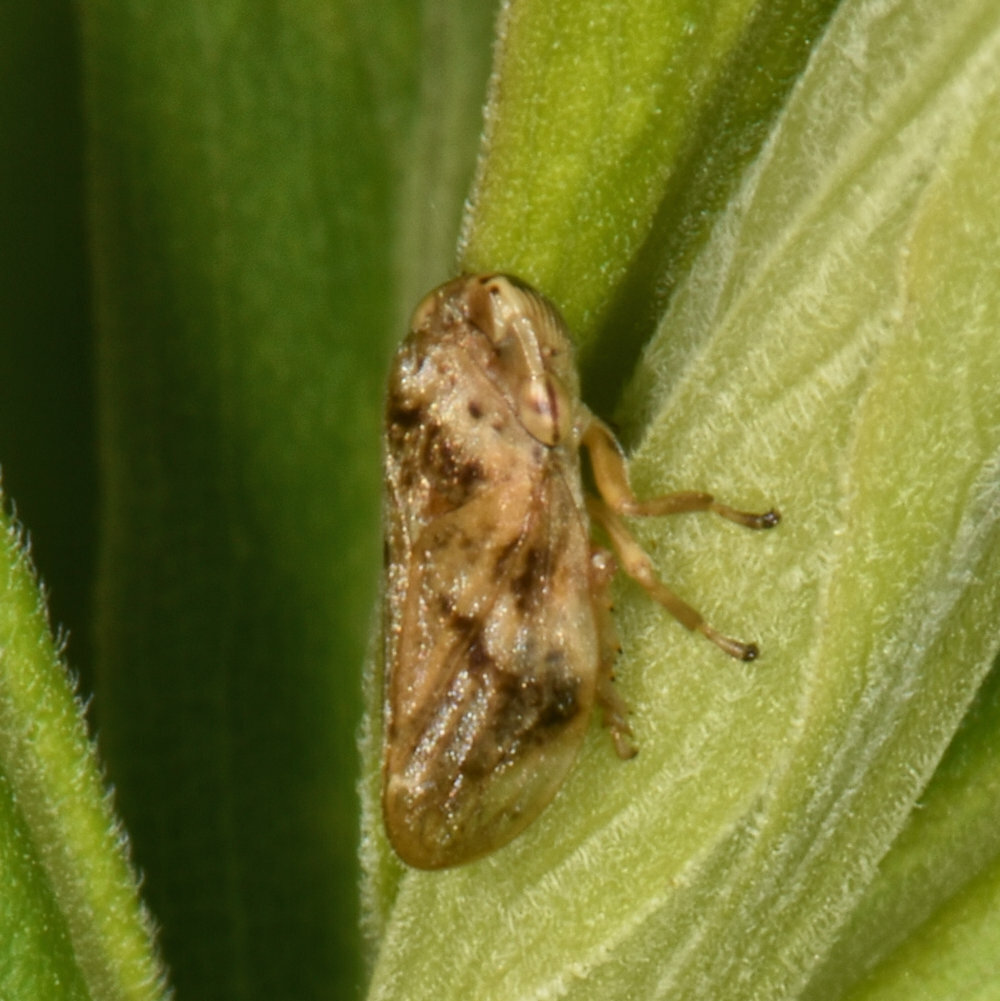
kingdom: Animalia
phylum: Arthropoda
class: Insecta
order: Hemiptera
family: Aphrophoridae
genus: Philaenus
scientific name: Philaenus spumarius
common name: Meadow spittlebug
